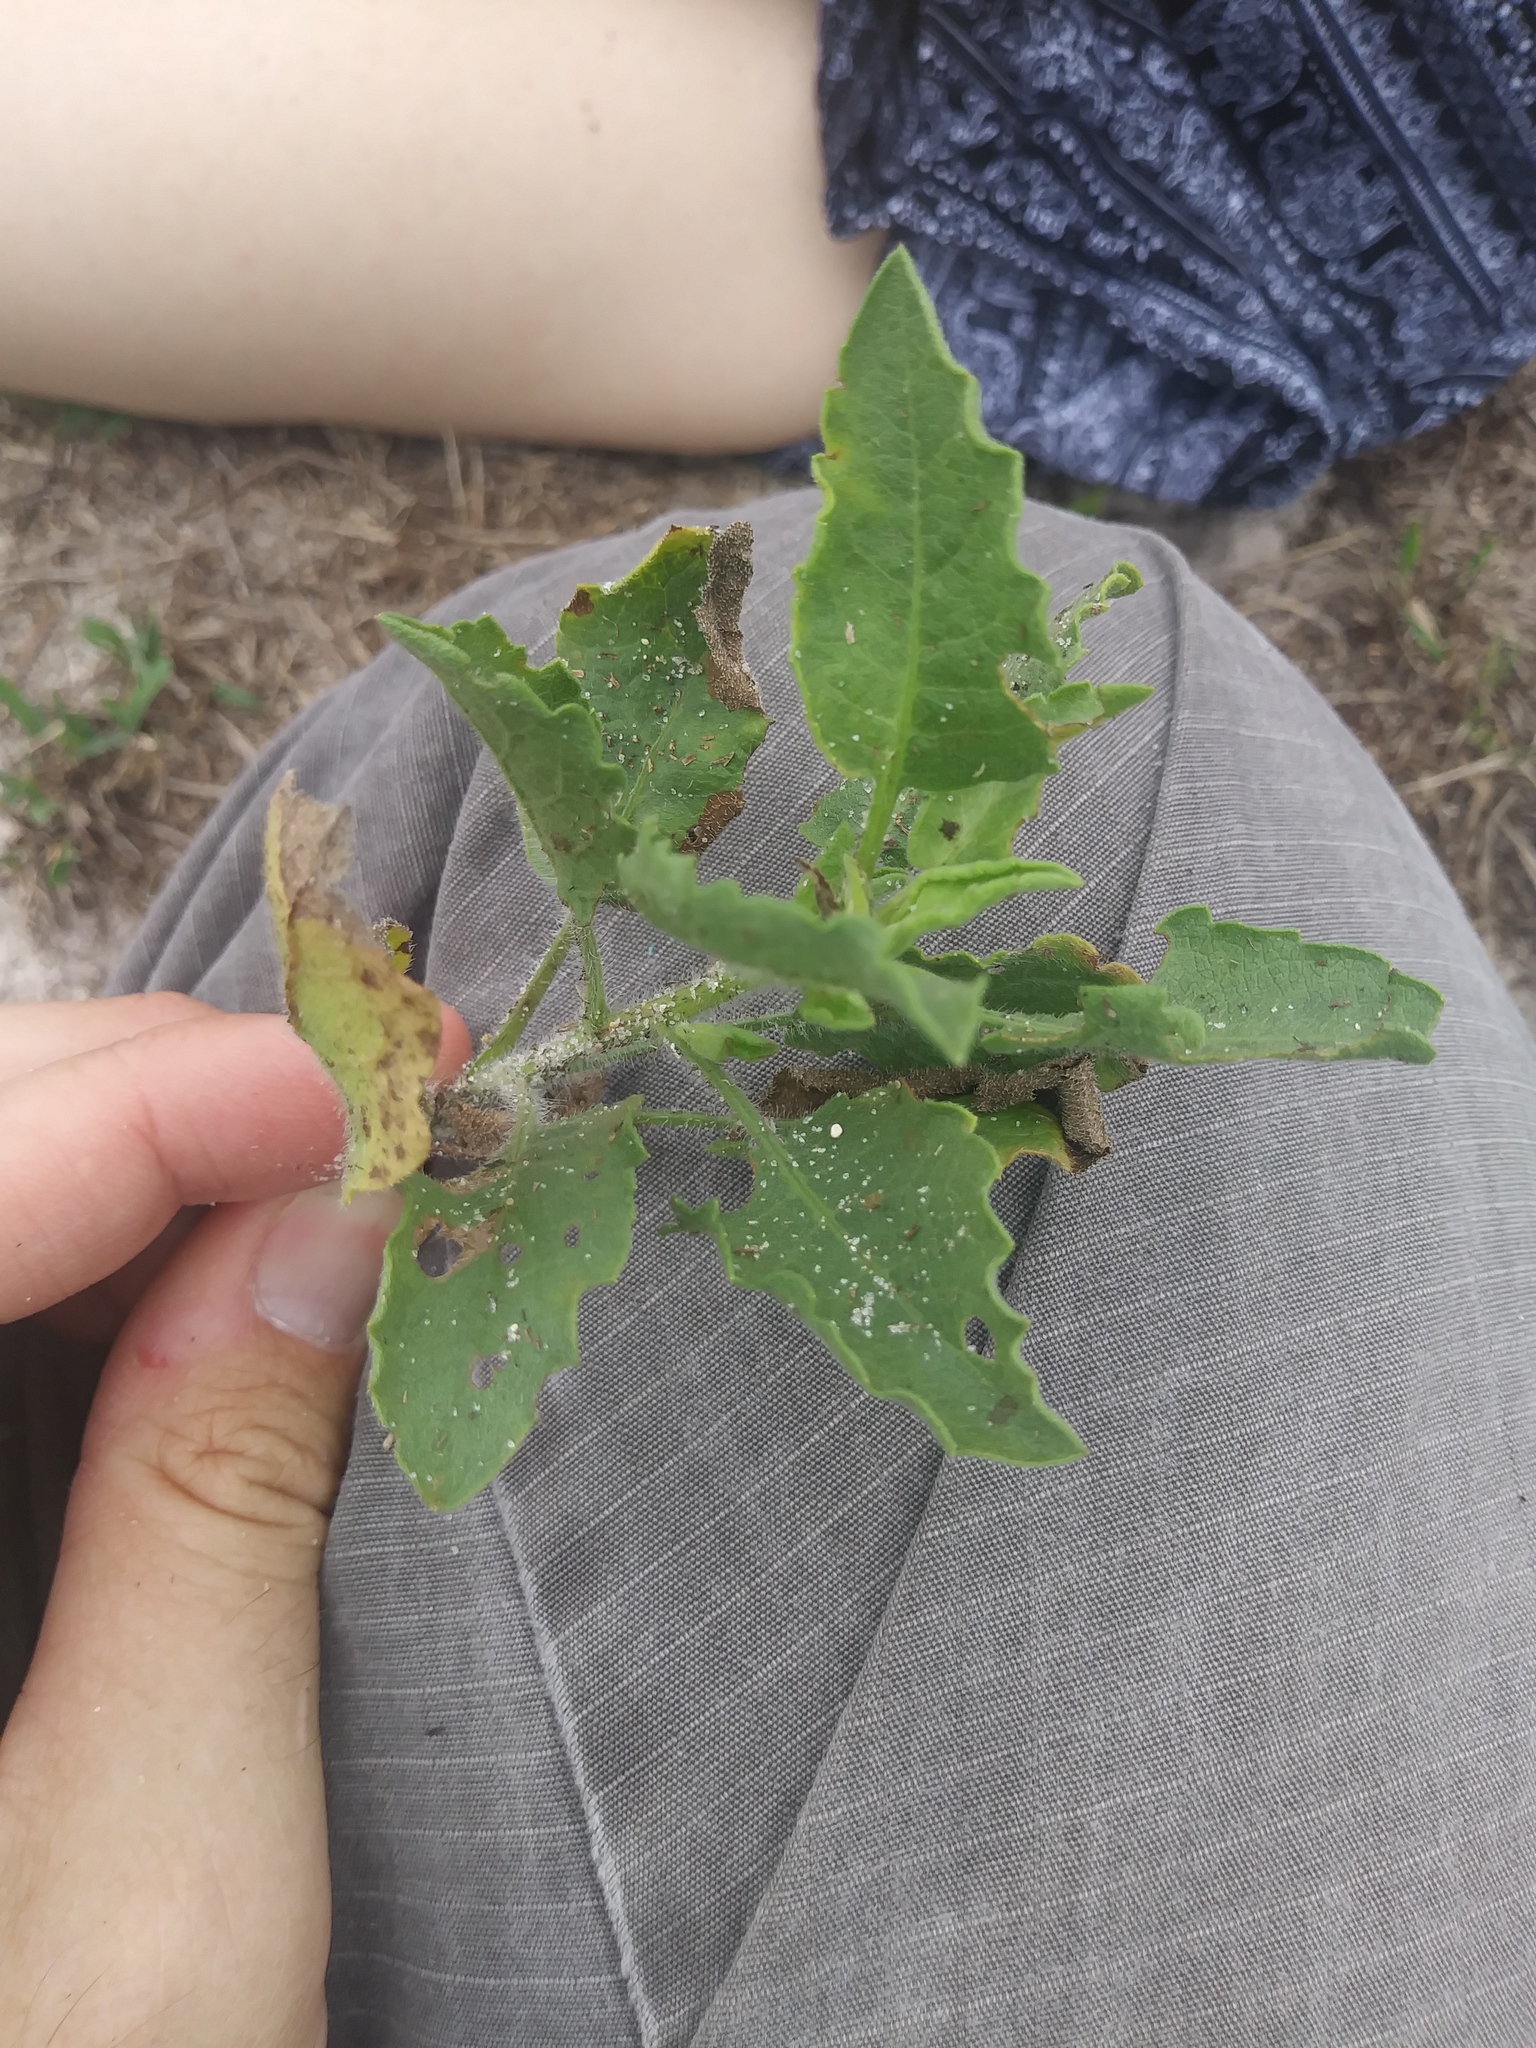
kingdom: Plantae
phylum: Tracheophyta
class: Magnoliopsida
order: Asterales
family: Asteraceae
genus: Heterotheca
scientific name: Heterotheca subaxillaris
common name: Camphorweed
